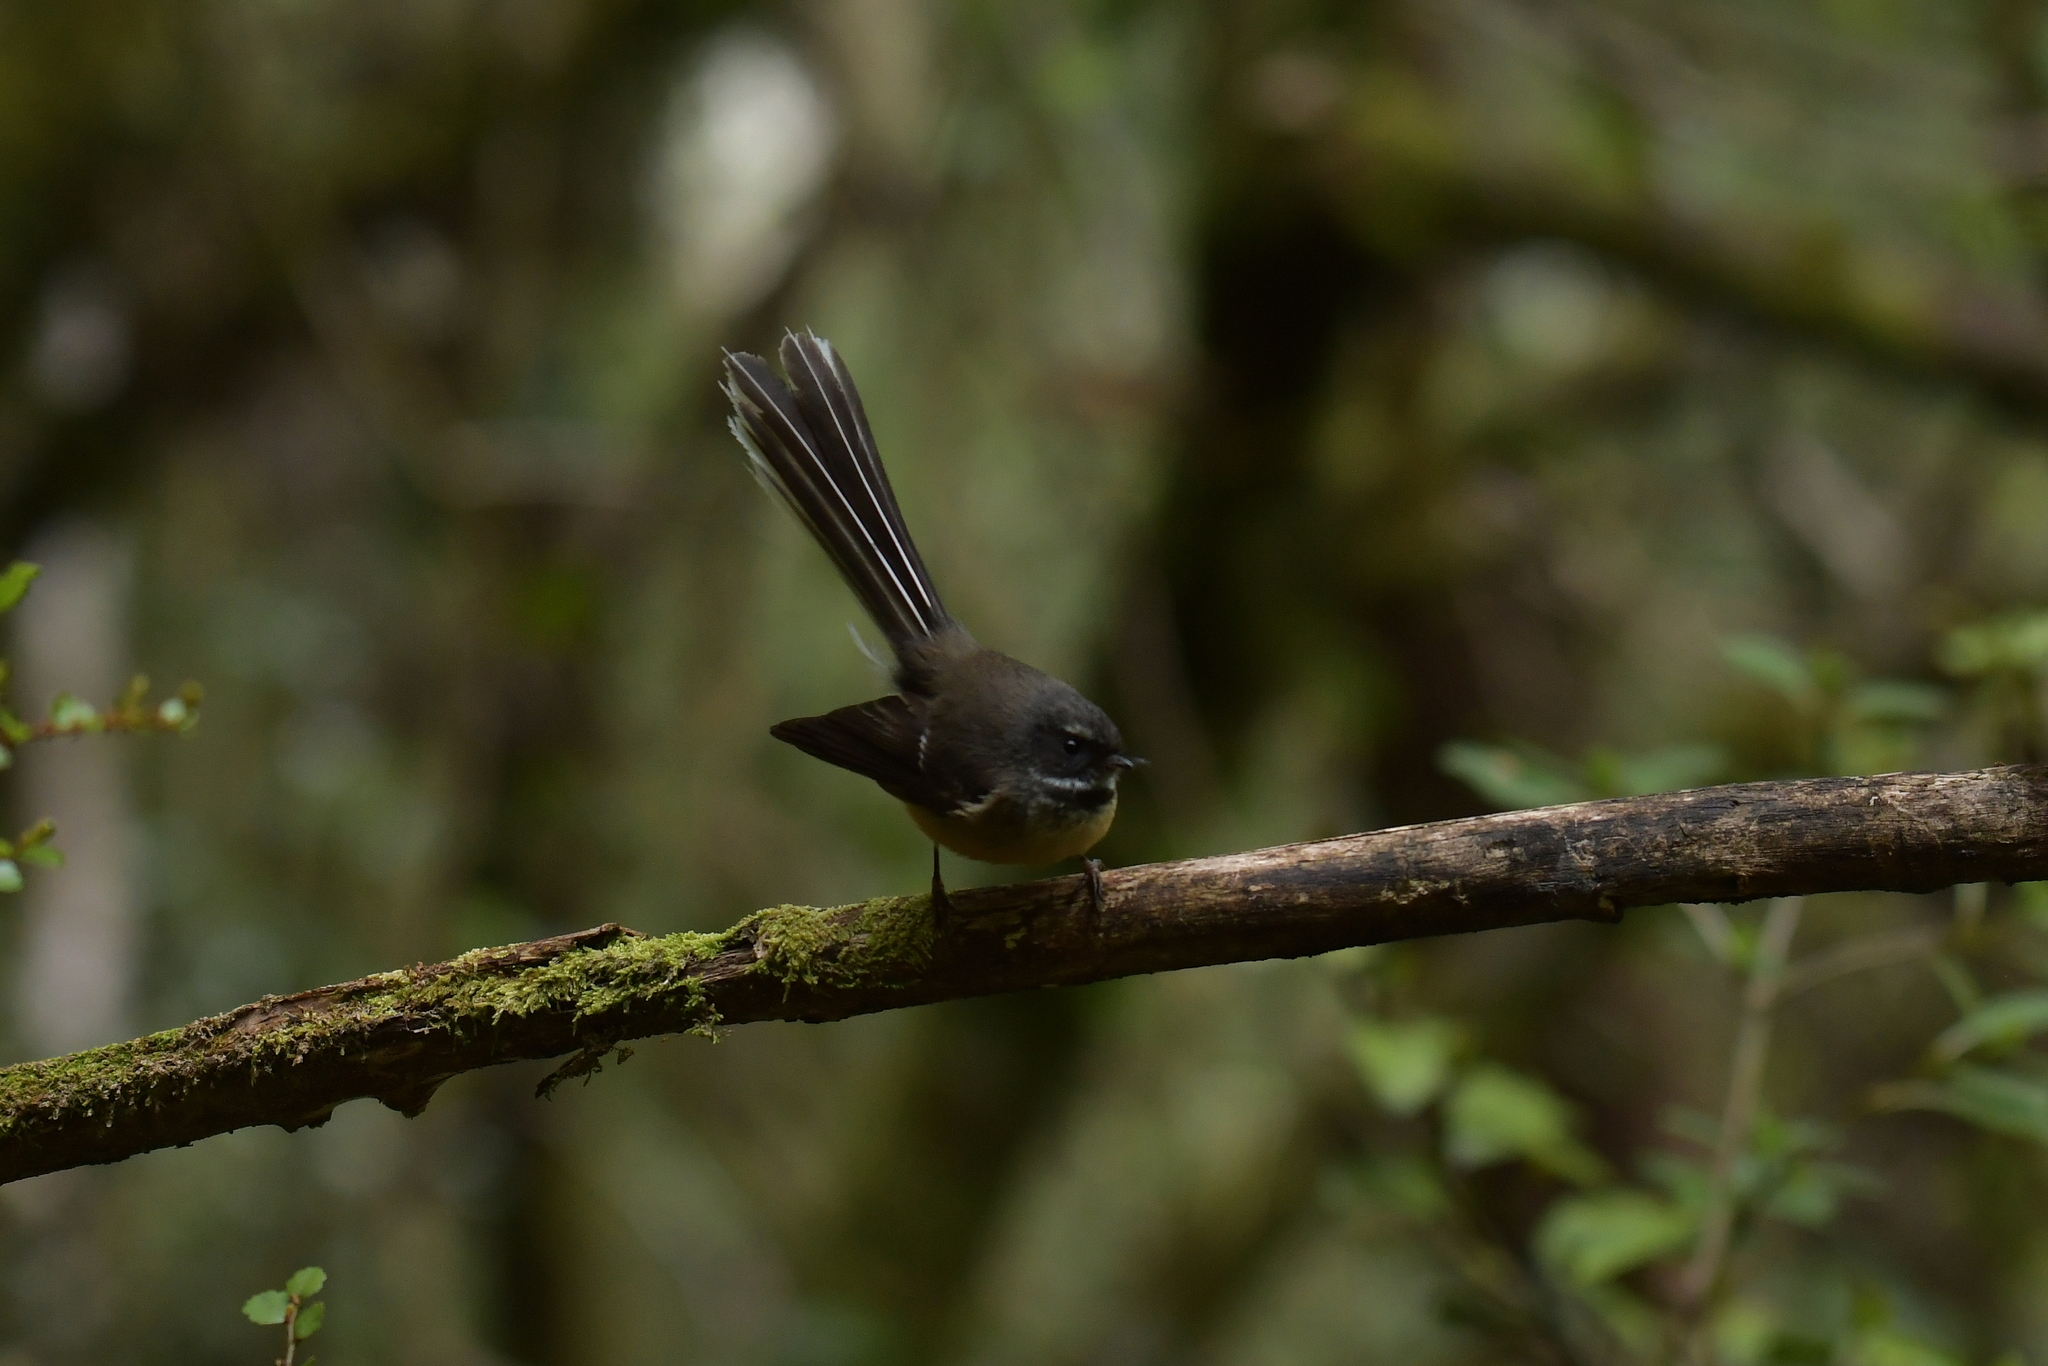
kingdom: Animalia
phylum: Chordata
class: Aves
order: Passeriformes
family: Rhipiduridae
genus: Rhipidura
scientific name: Rhipidura fuliginosa
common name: New zealand fantail
